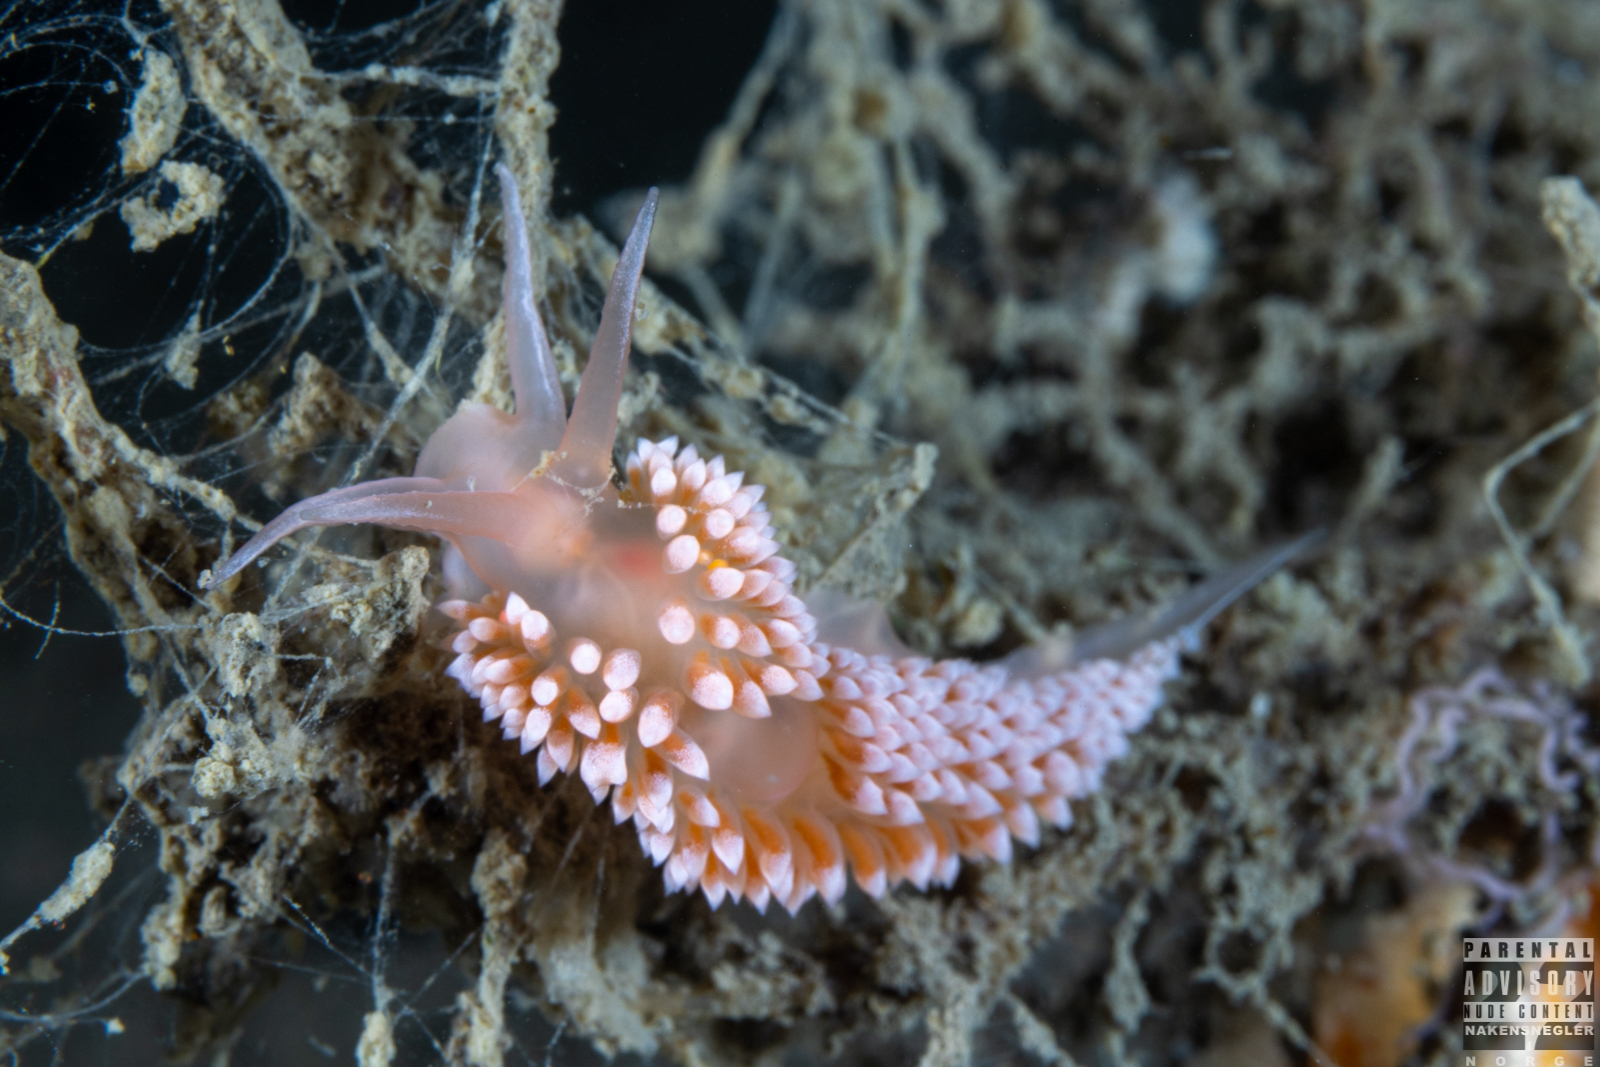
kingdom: Animalia
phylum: Mollusca
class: Gastropoda
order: Nudibranchia
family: Coryphellidae
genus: Coryphella
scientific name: Coryphella verrucosa
